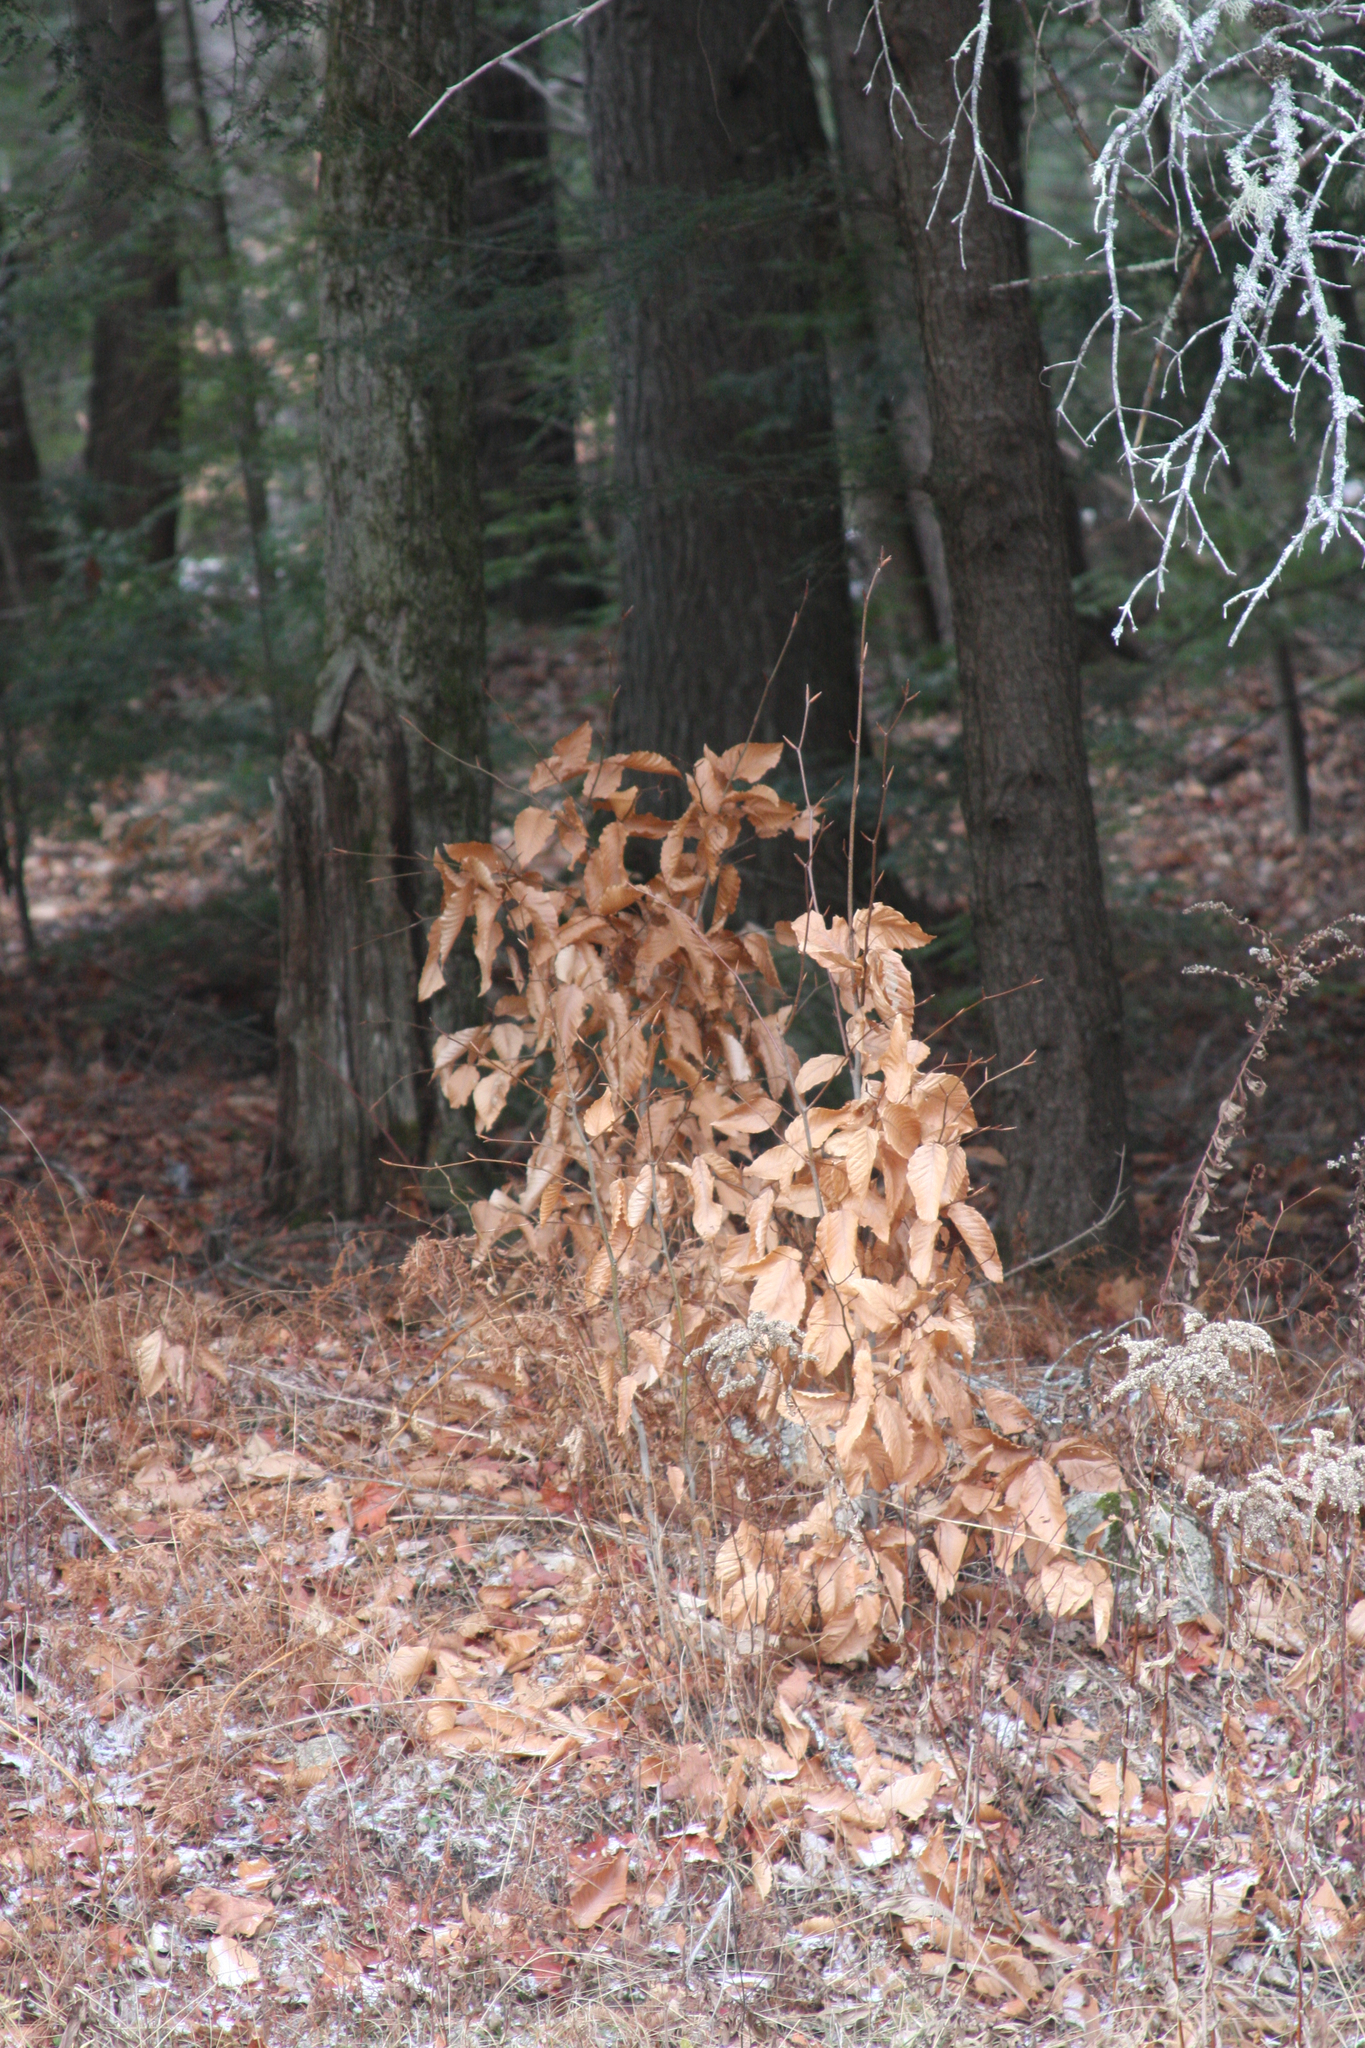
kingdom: Plantae
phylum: Tracheophyta
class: Magnoliopsida
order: Fagales
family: Fagaceae
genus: Fagus
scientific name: Fagus grandifolia
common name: American beech
